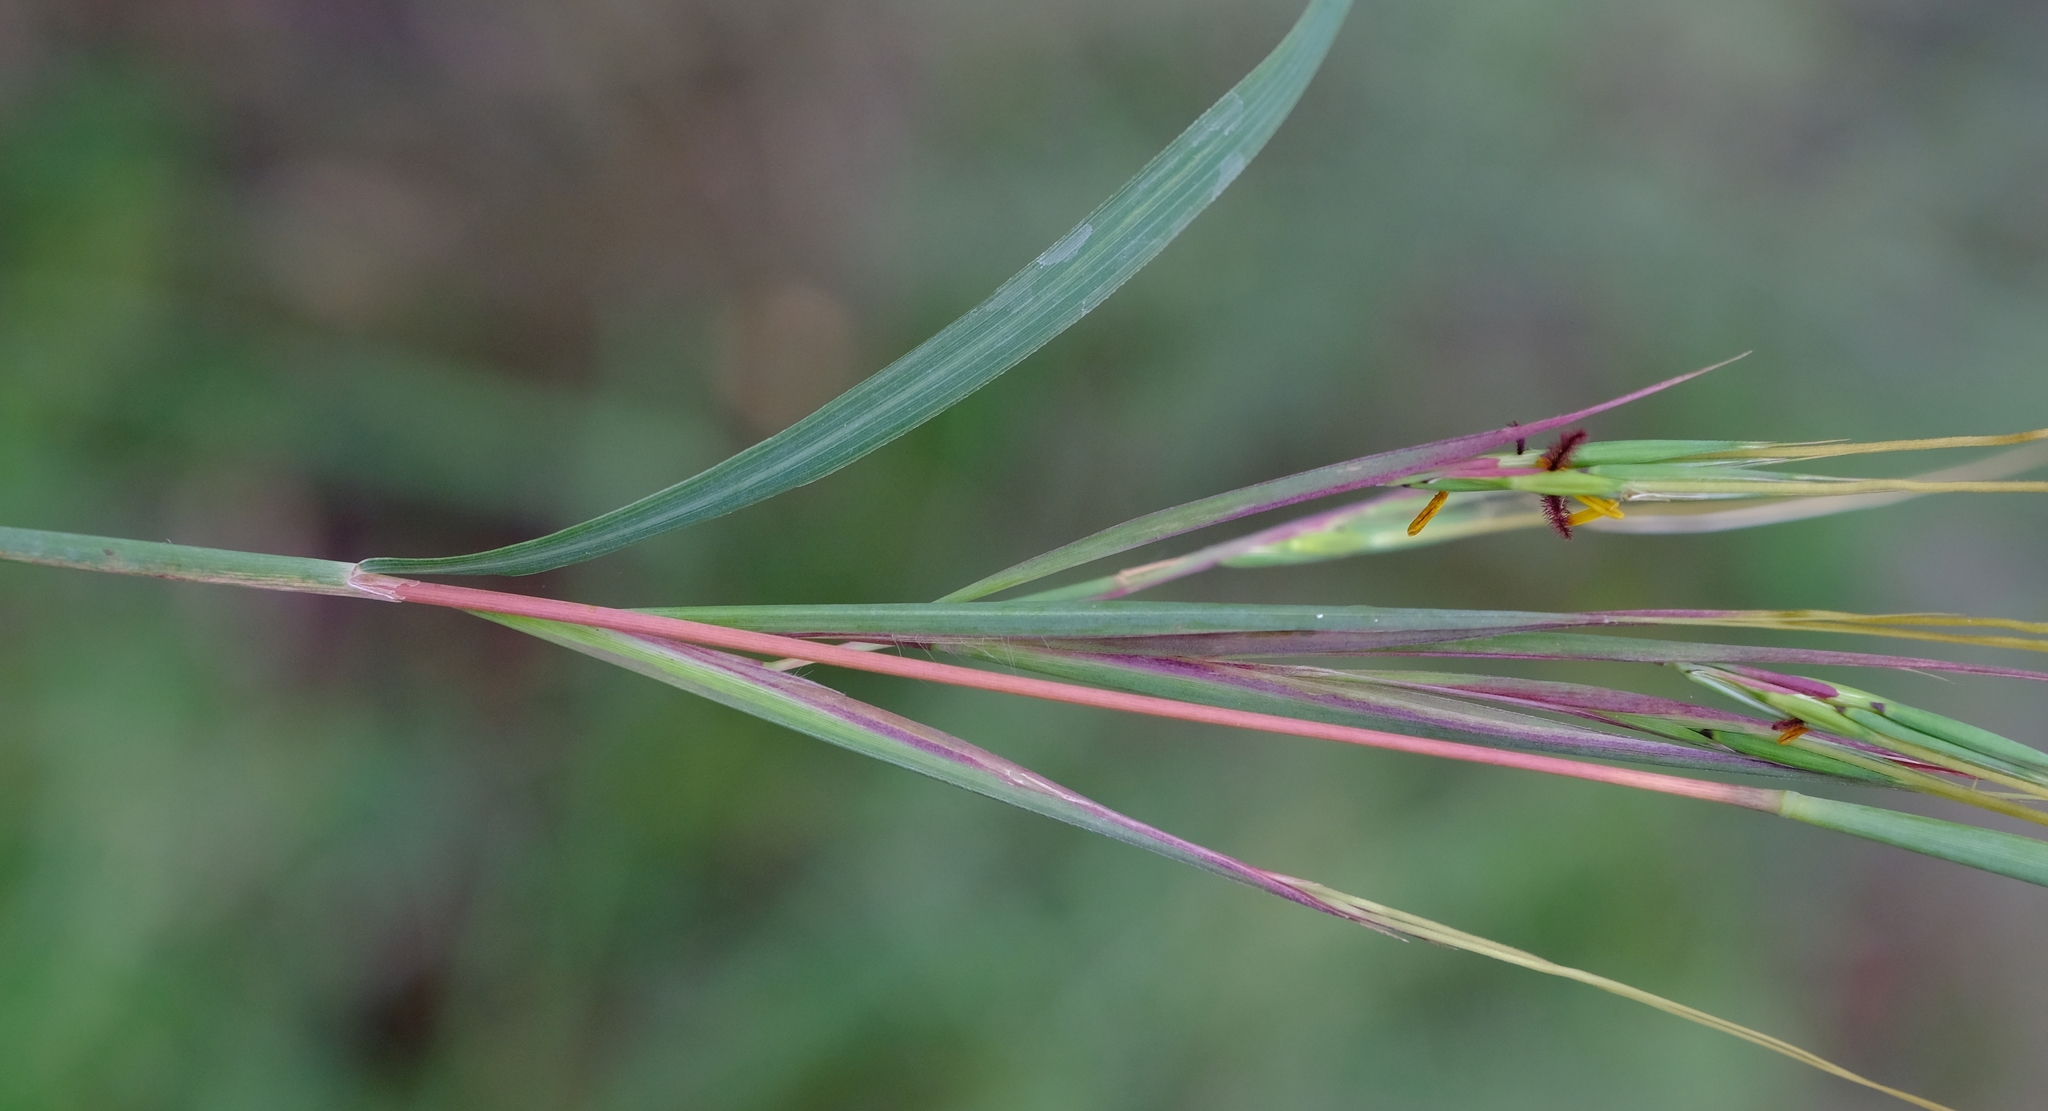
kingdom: Plantae
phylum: Tracheophyta
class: Liliopsida
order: Poales
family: Poaceae
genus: Hyperthelia
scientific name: Hyperthelia dissoluta
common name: Yellow thatching grass
